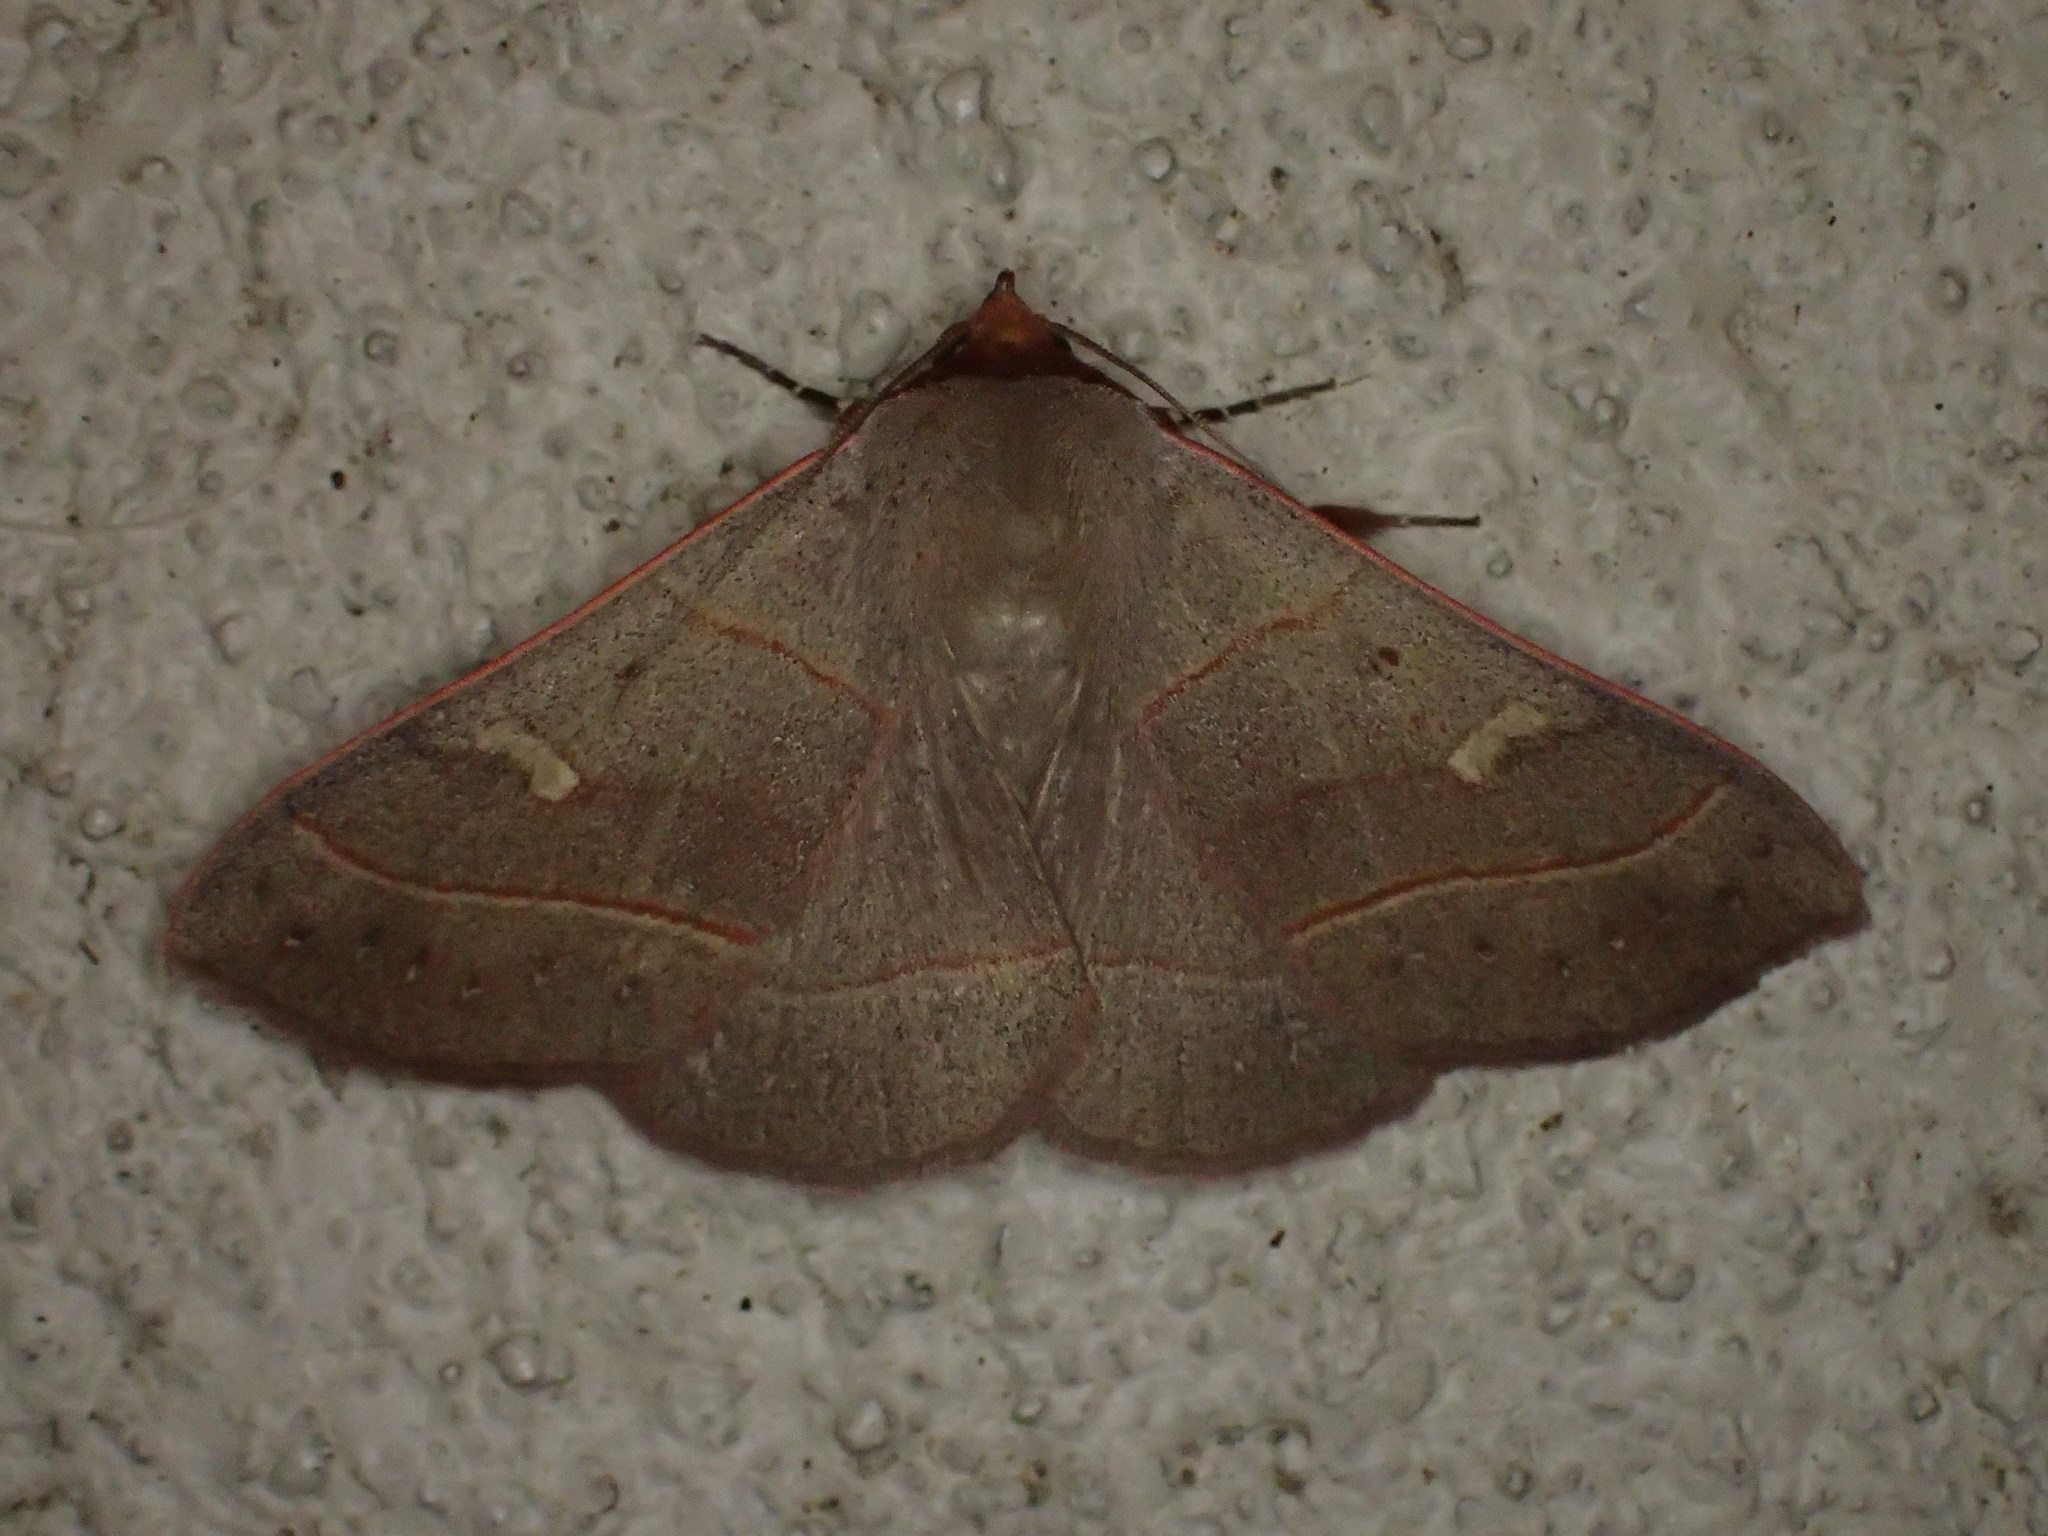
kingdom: Animalia
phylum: Arthropoda
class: Insecta
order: Lepidoptera
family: Erebidae
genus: Panopoda
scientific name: Panopoda rufimargo
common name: Red-lined panopoda moth
